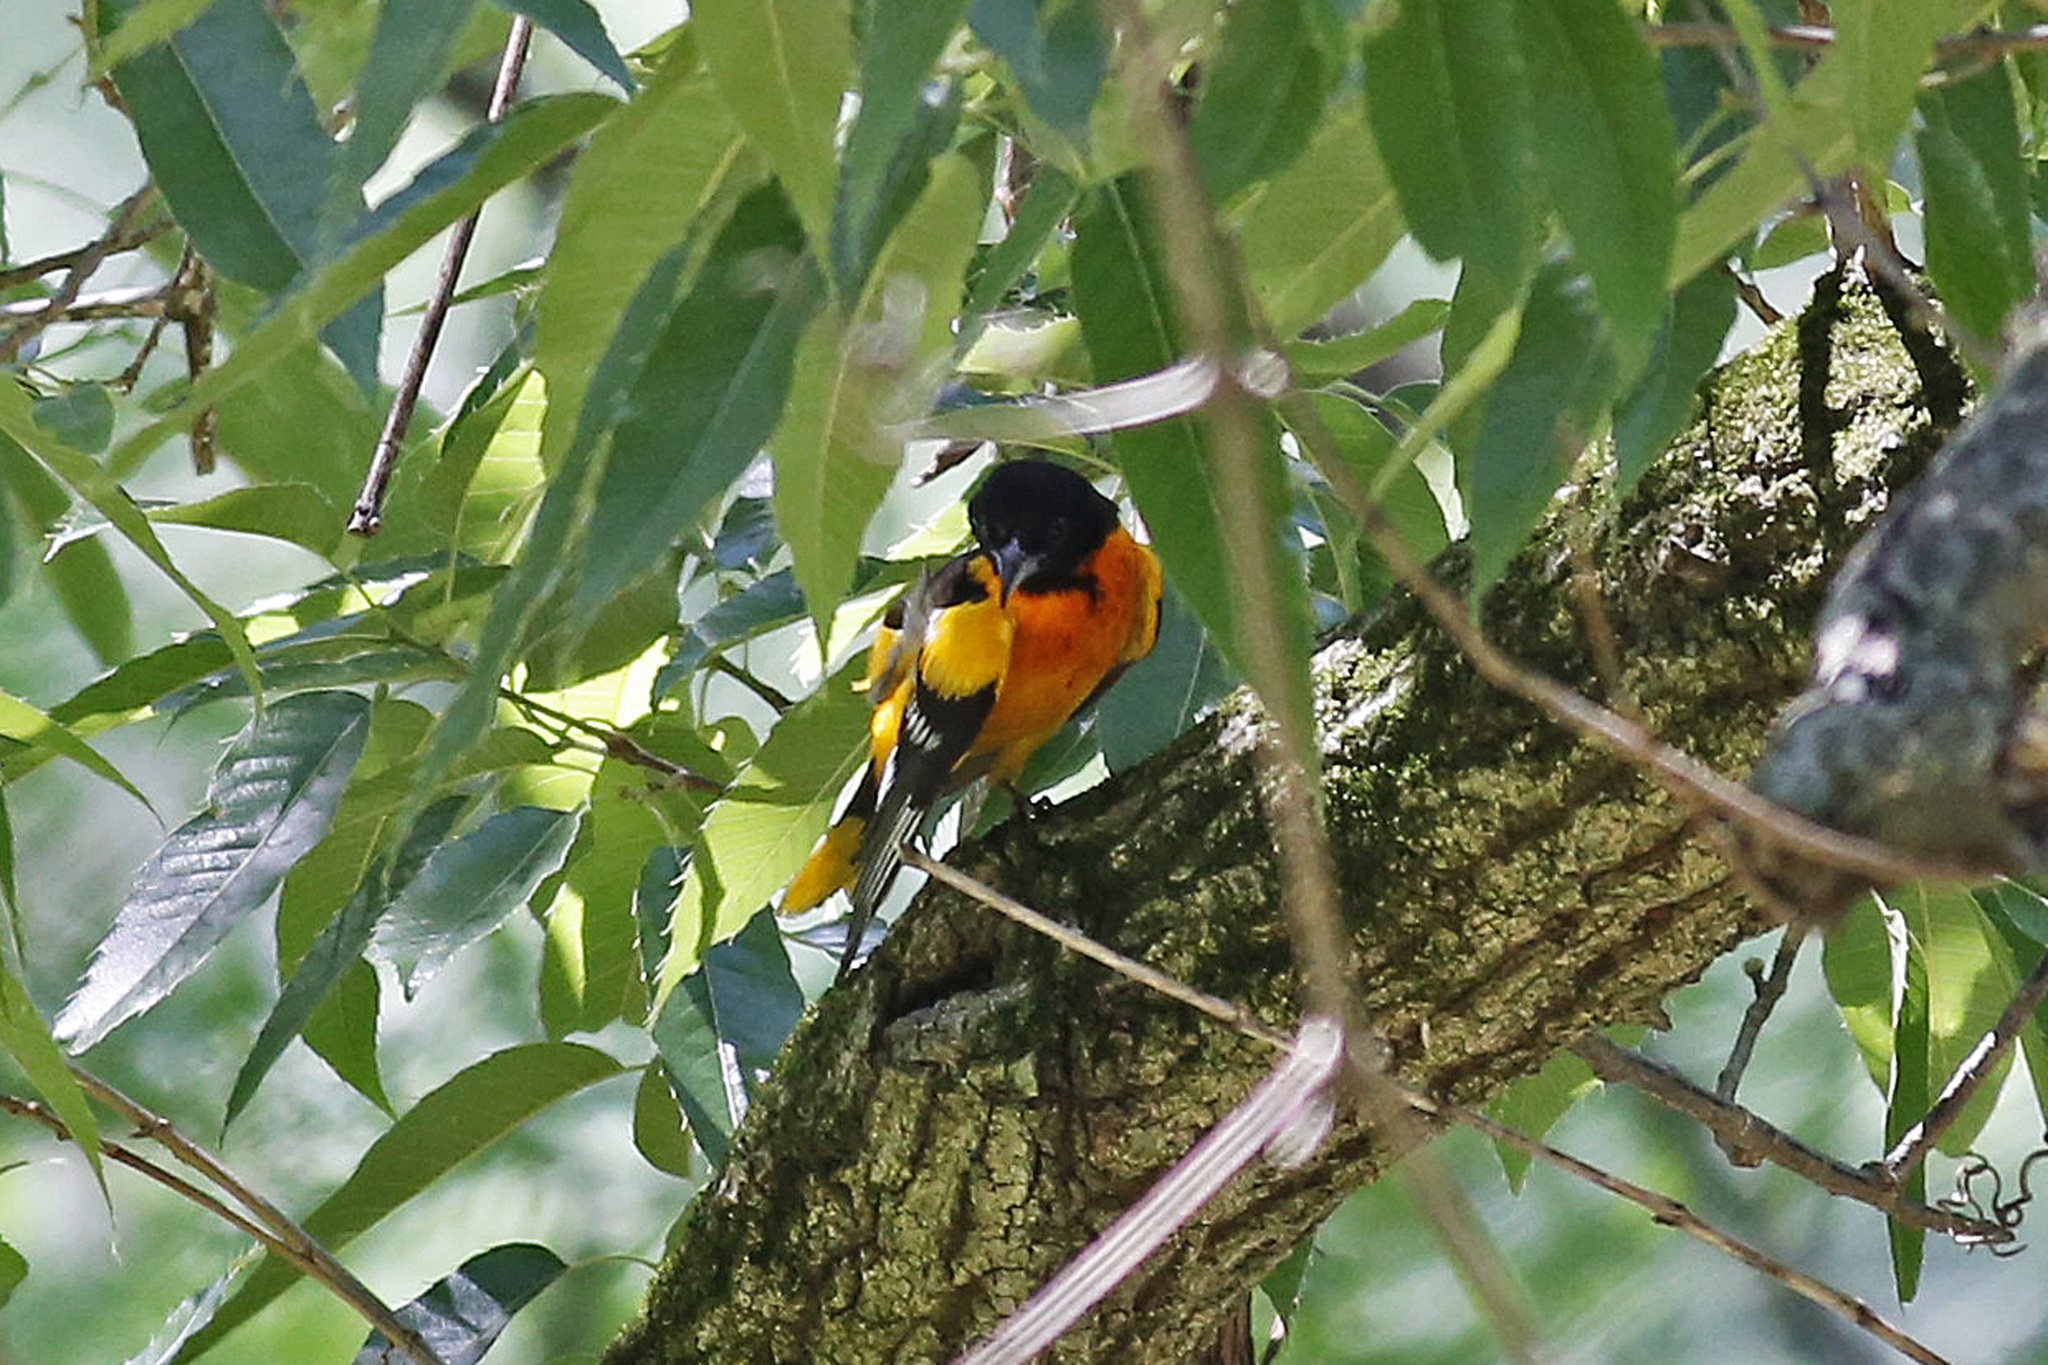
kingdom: Animalia
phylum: Chordata
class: Aves
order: Passeriformes
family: Icteridae
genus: Icterus
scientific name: Icterus galbula
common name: Baltimore oriole
